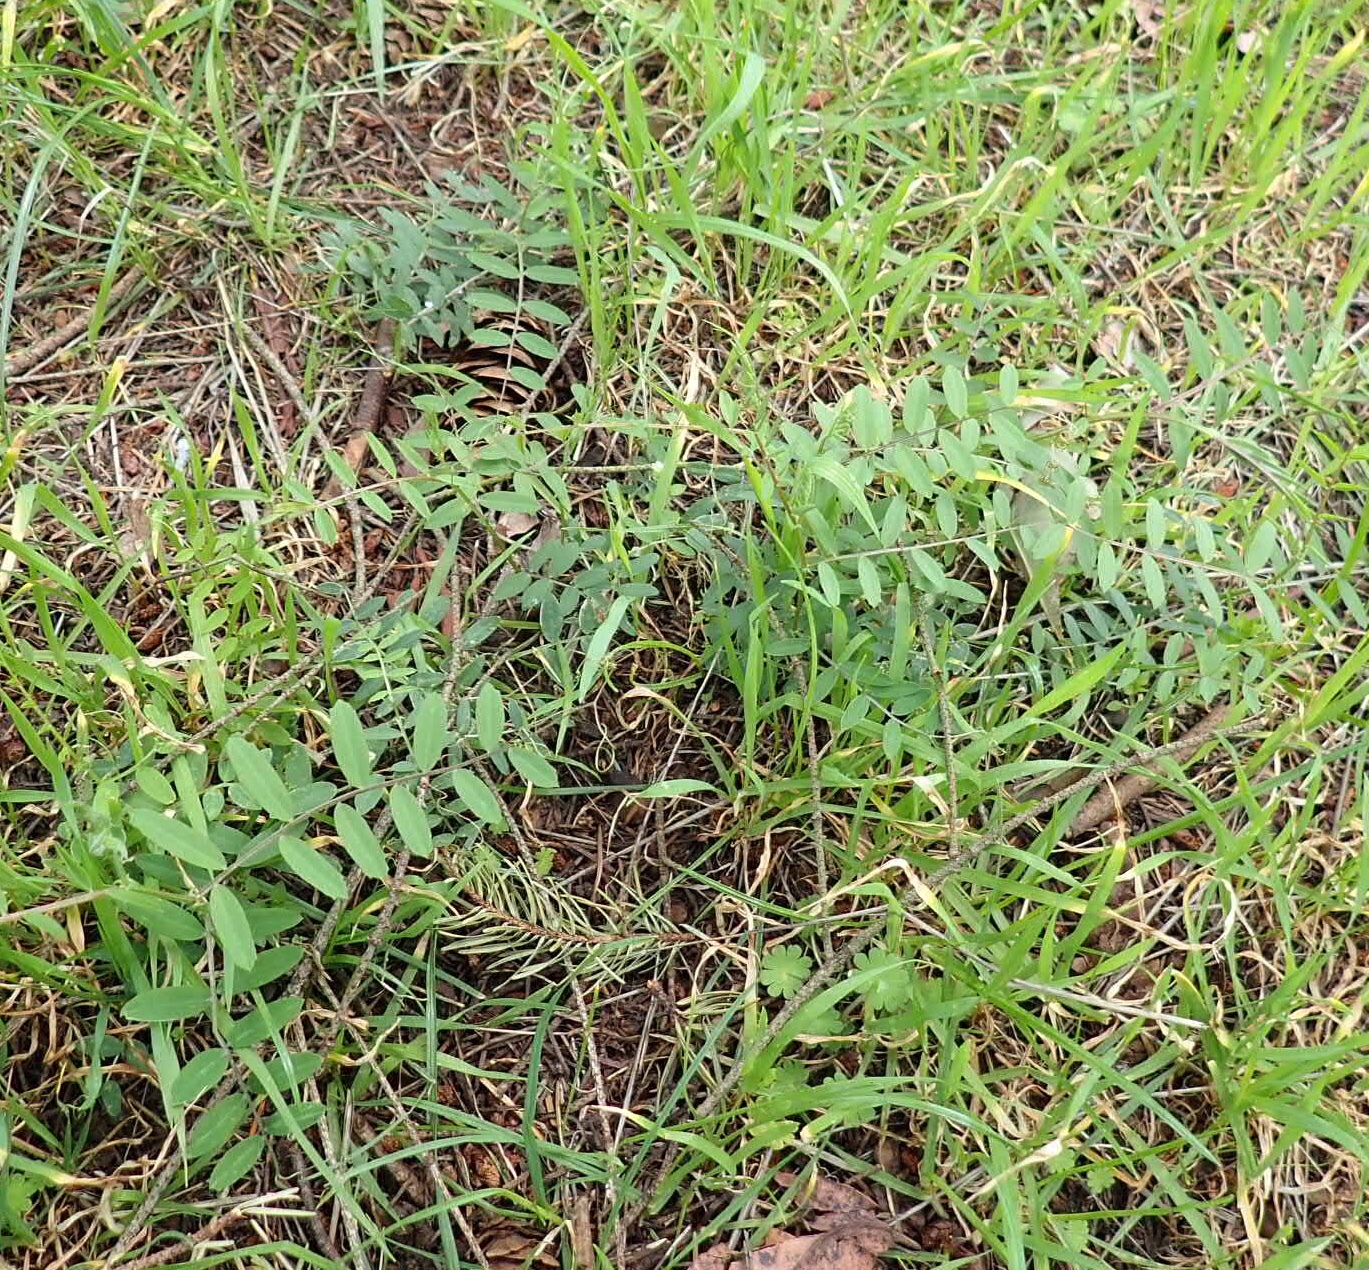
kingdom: Plantae
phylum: Tracheophyta
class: Magnoliopsida
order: Fabales
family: Fabaceae
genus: Vicia
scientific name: Vicia americana
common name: American vetch
